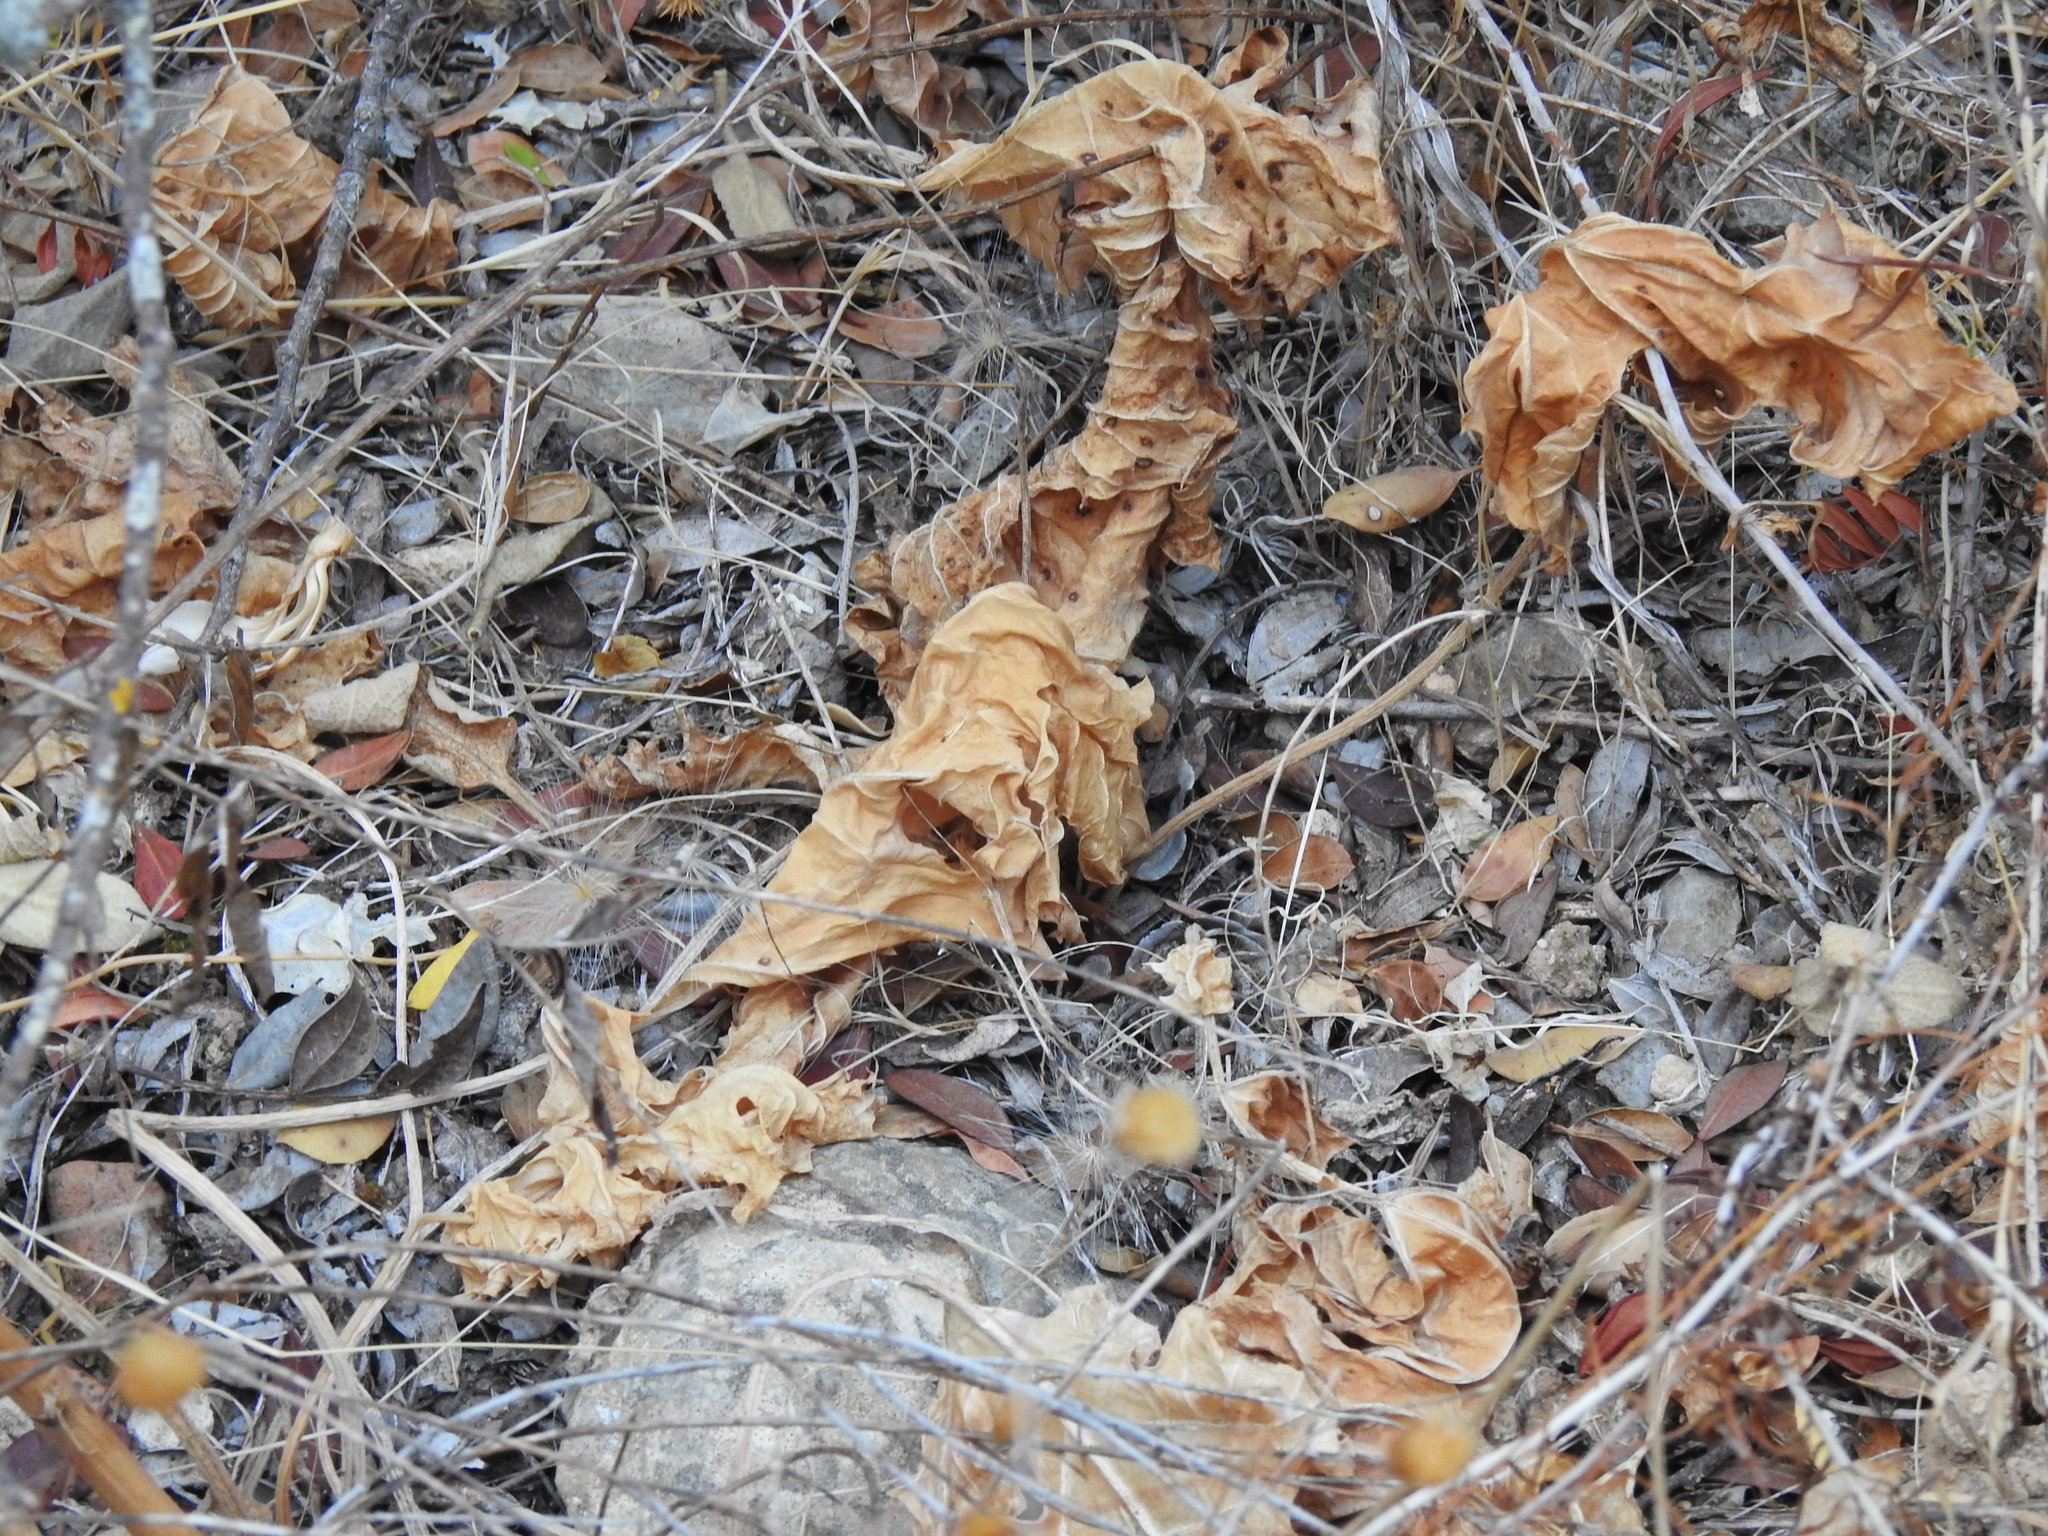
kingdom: Plantae
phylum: Tracheophyta
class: Magnoliopsida
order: Lamiales
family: Acanthaceae
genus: Acanthus
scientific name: Acanthus mollis
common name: Bear's-breech
